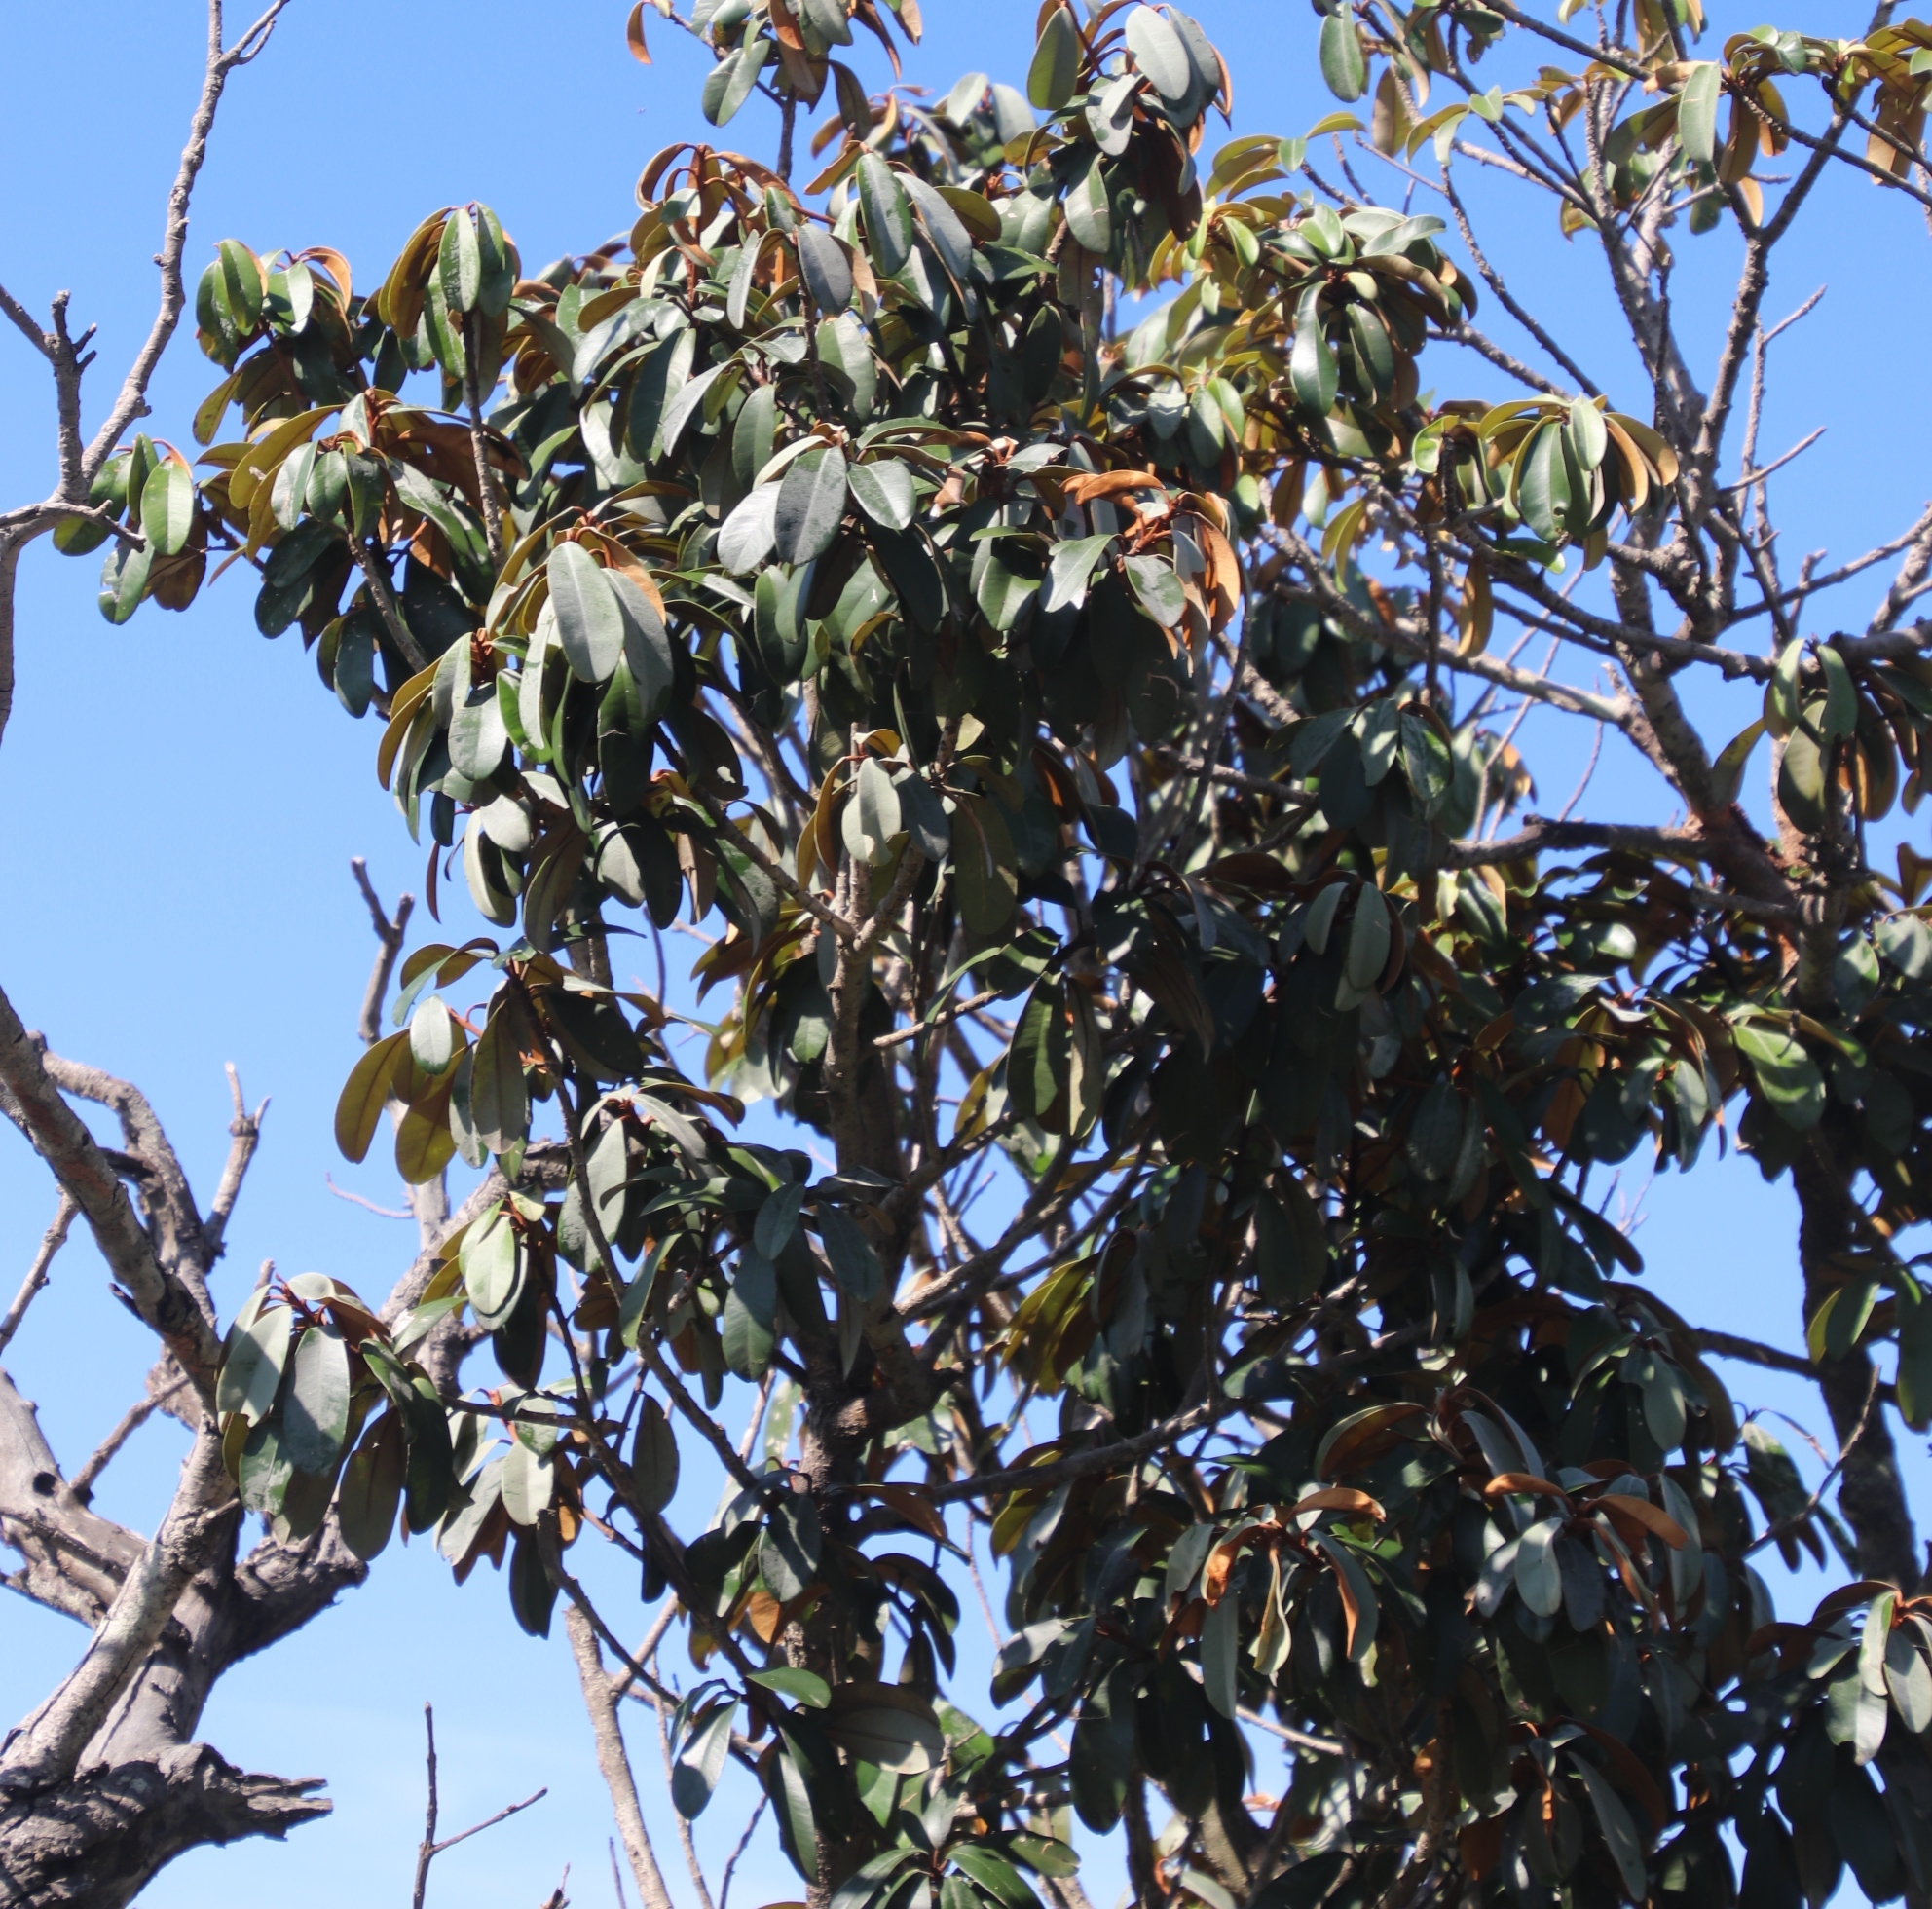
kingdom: Plantae
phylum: Tracheophyta
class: Magnoliopsida
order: Ericales
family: Sapotaceae
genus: Englerophytum
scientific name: Englerophytum magalismontanum
